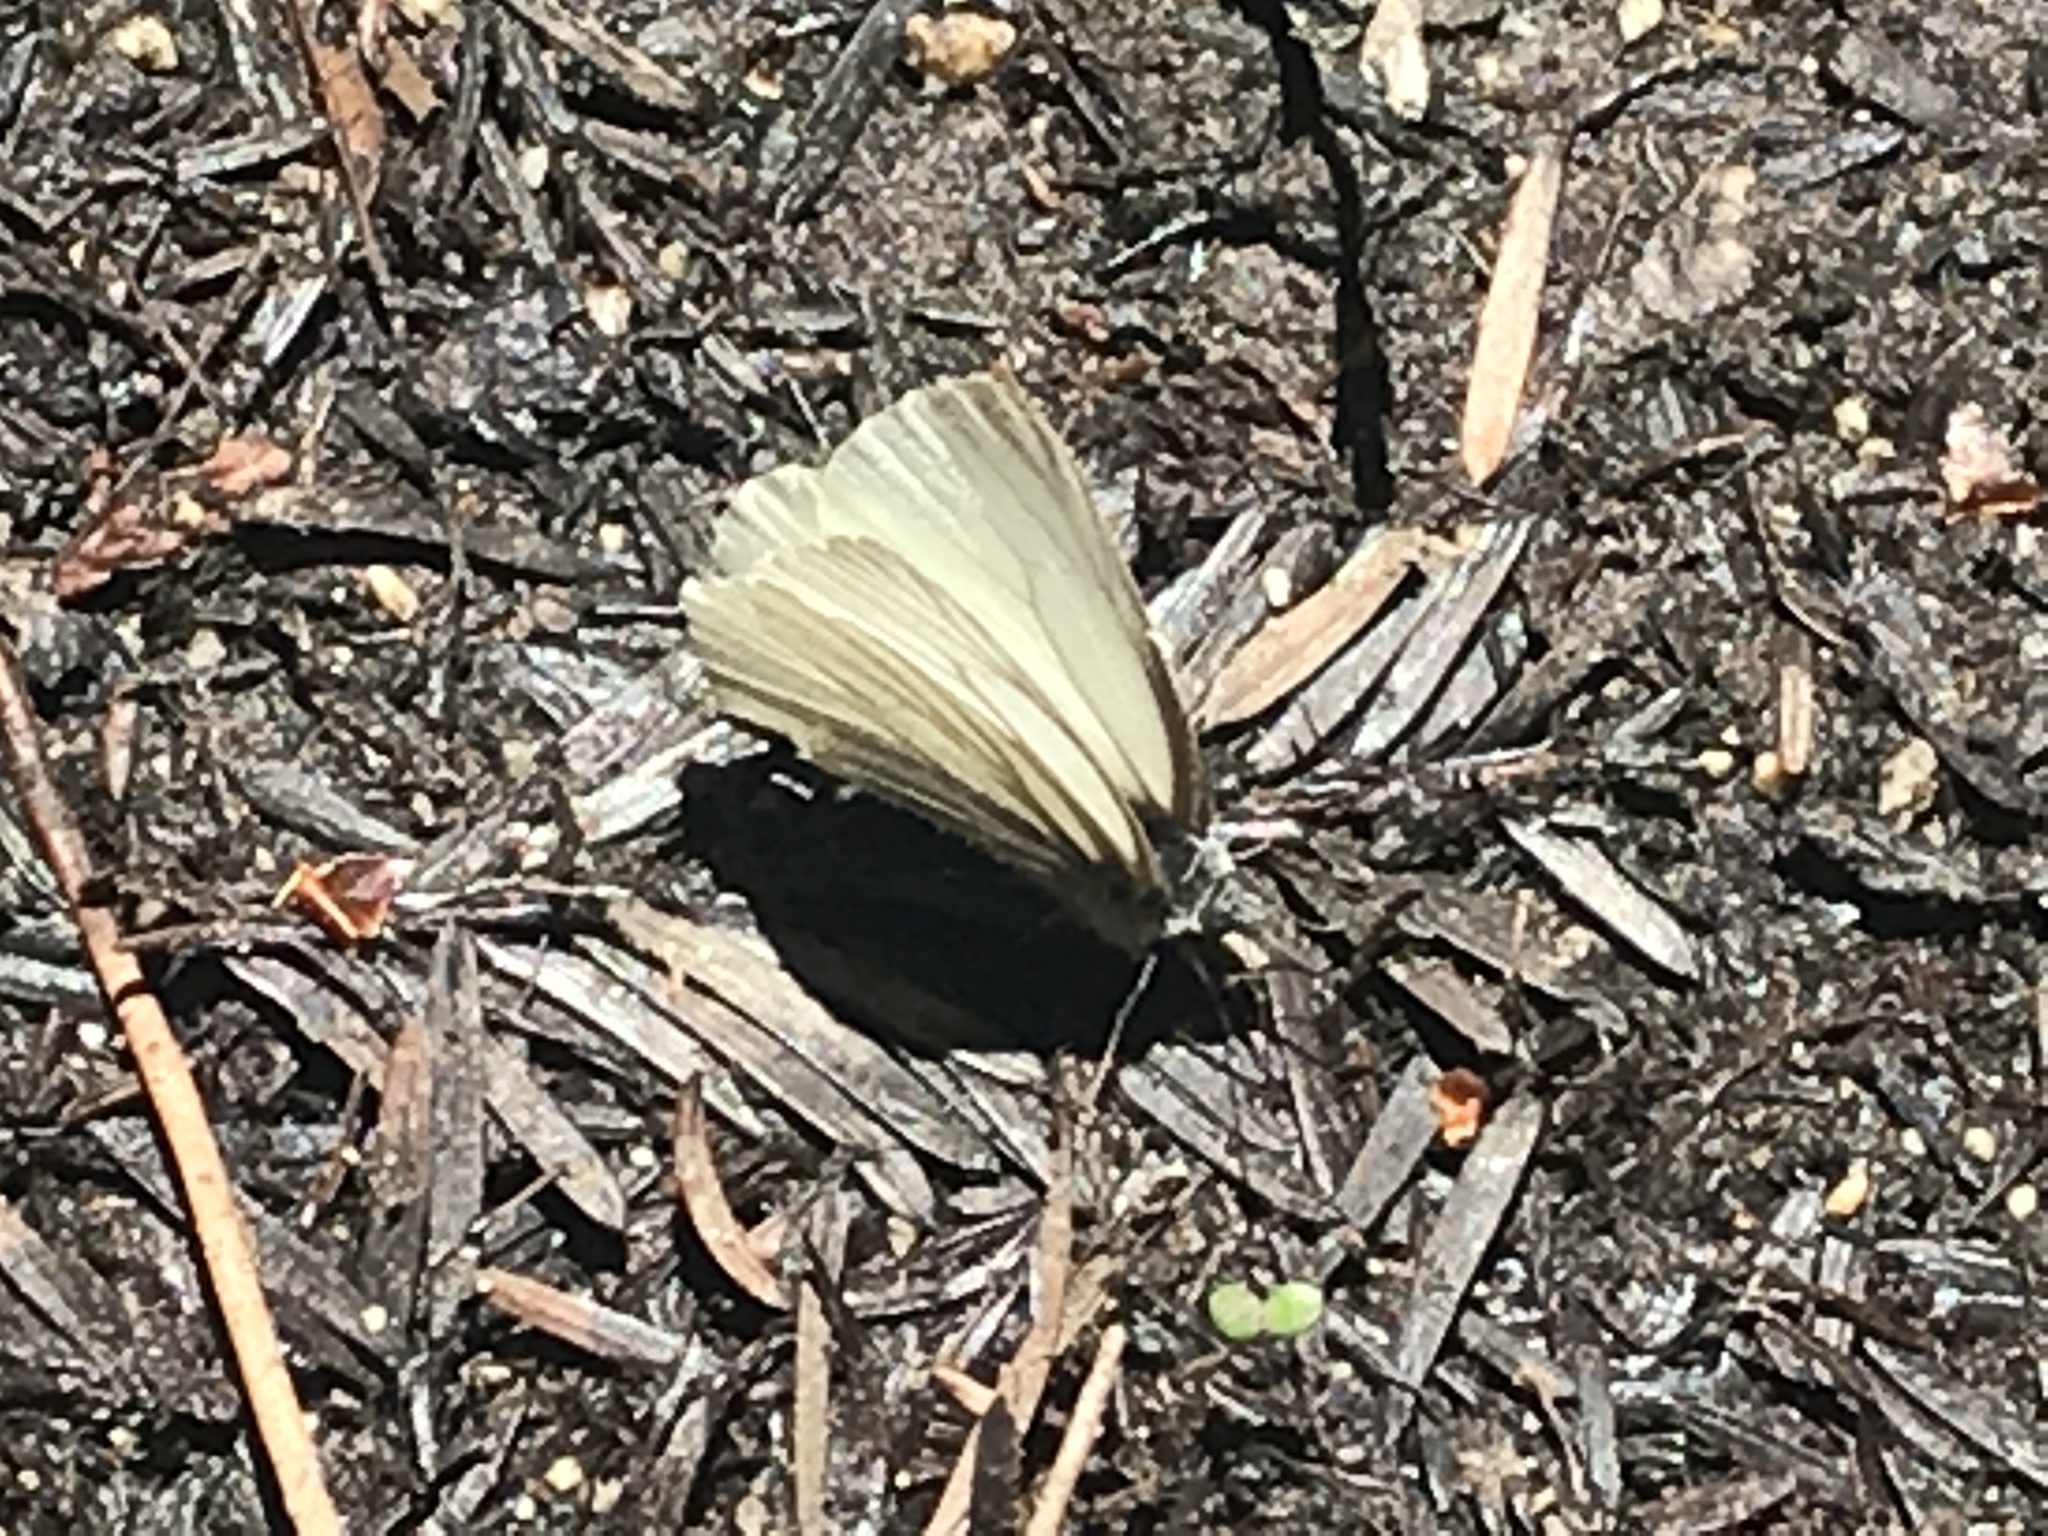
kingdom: Animalia
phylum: Arthropoda
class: Insecta
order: Lepidoptera
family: Pieridae
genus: Pieris
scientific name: Pieris marginalis
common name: Margined white
